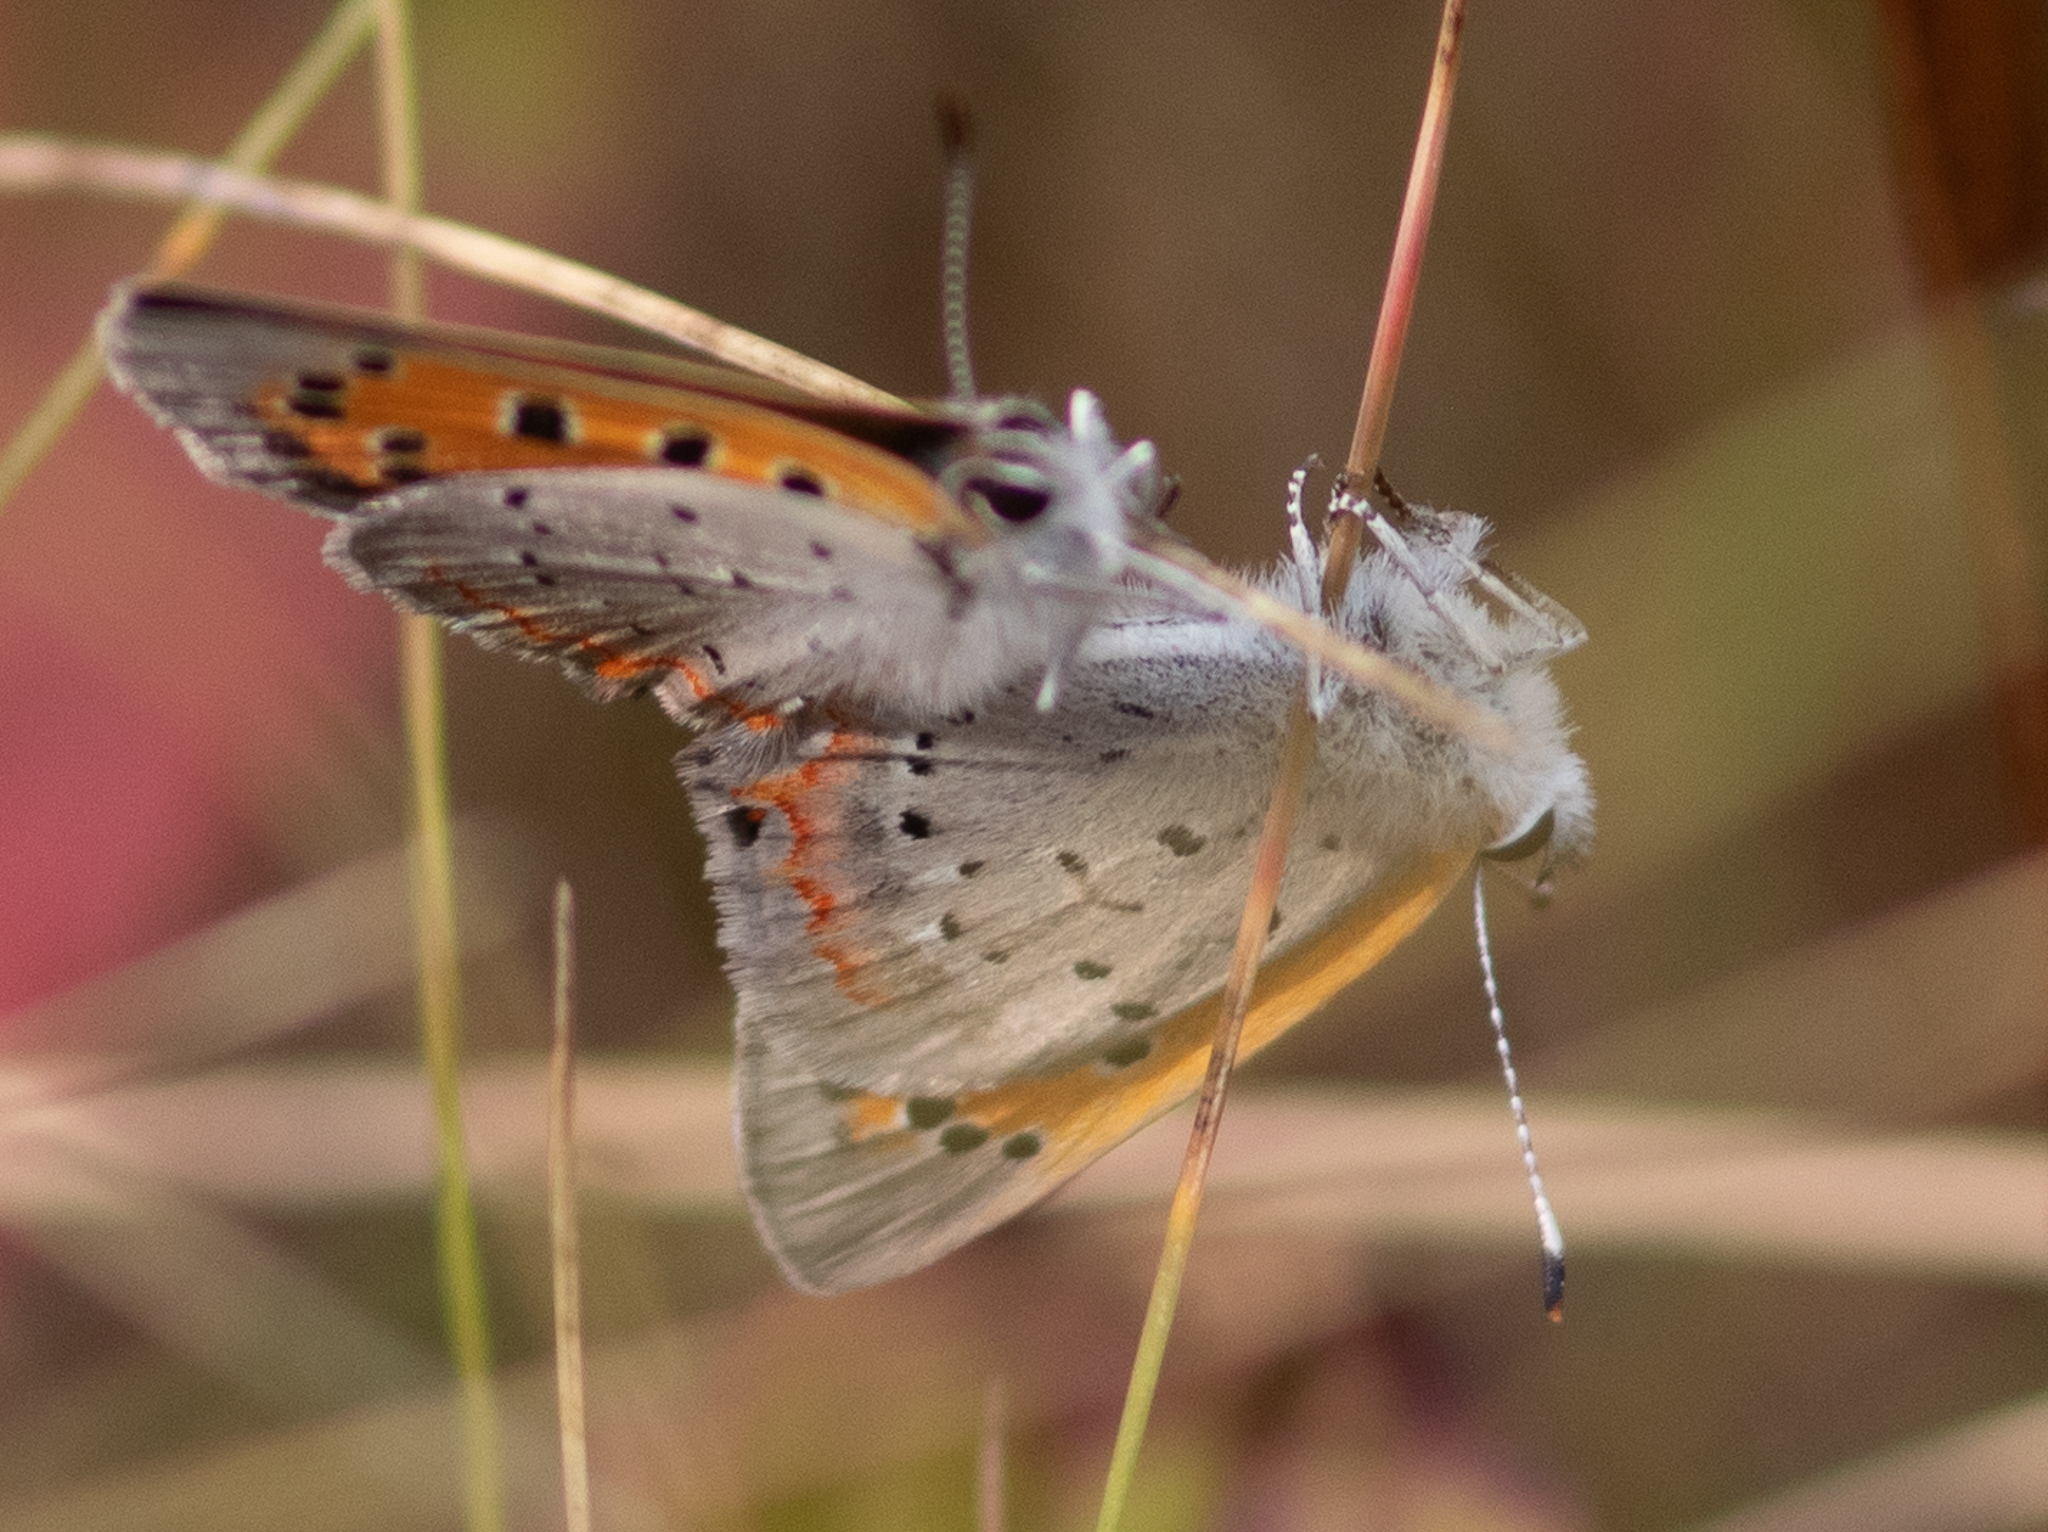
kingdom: Animalia
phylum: Arthropoda
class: Insecta
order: Lepidoptera
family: Lycaenidae
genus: Lycaena
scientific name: Lycaena hypophlaeas
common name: American copper
